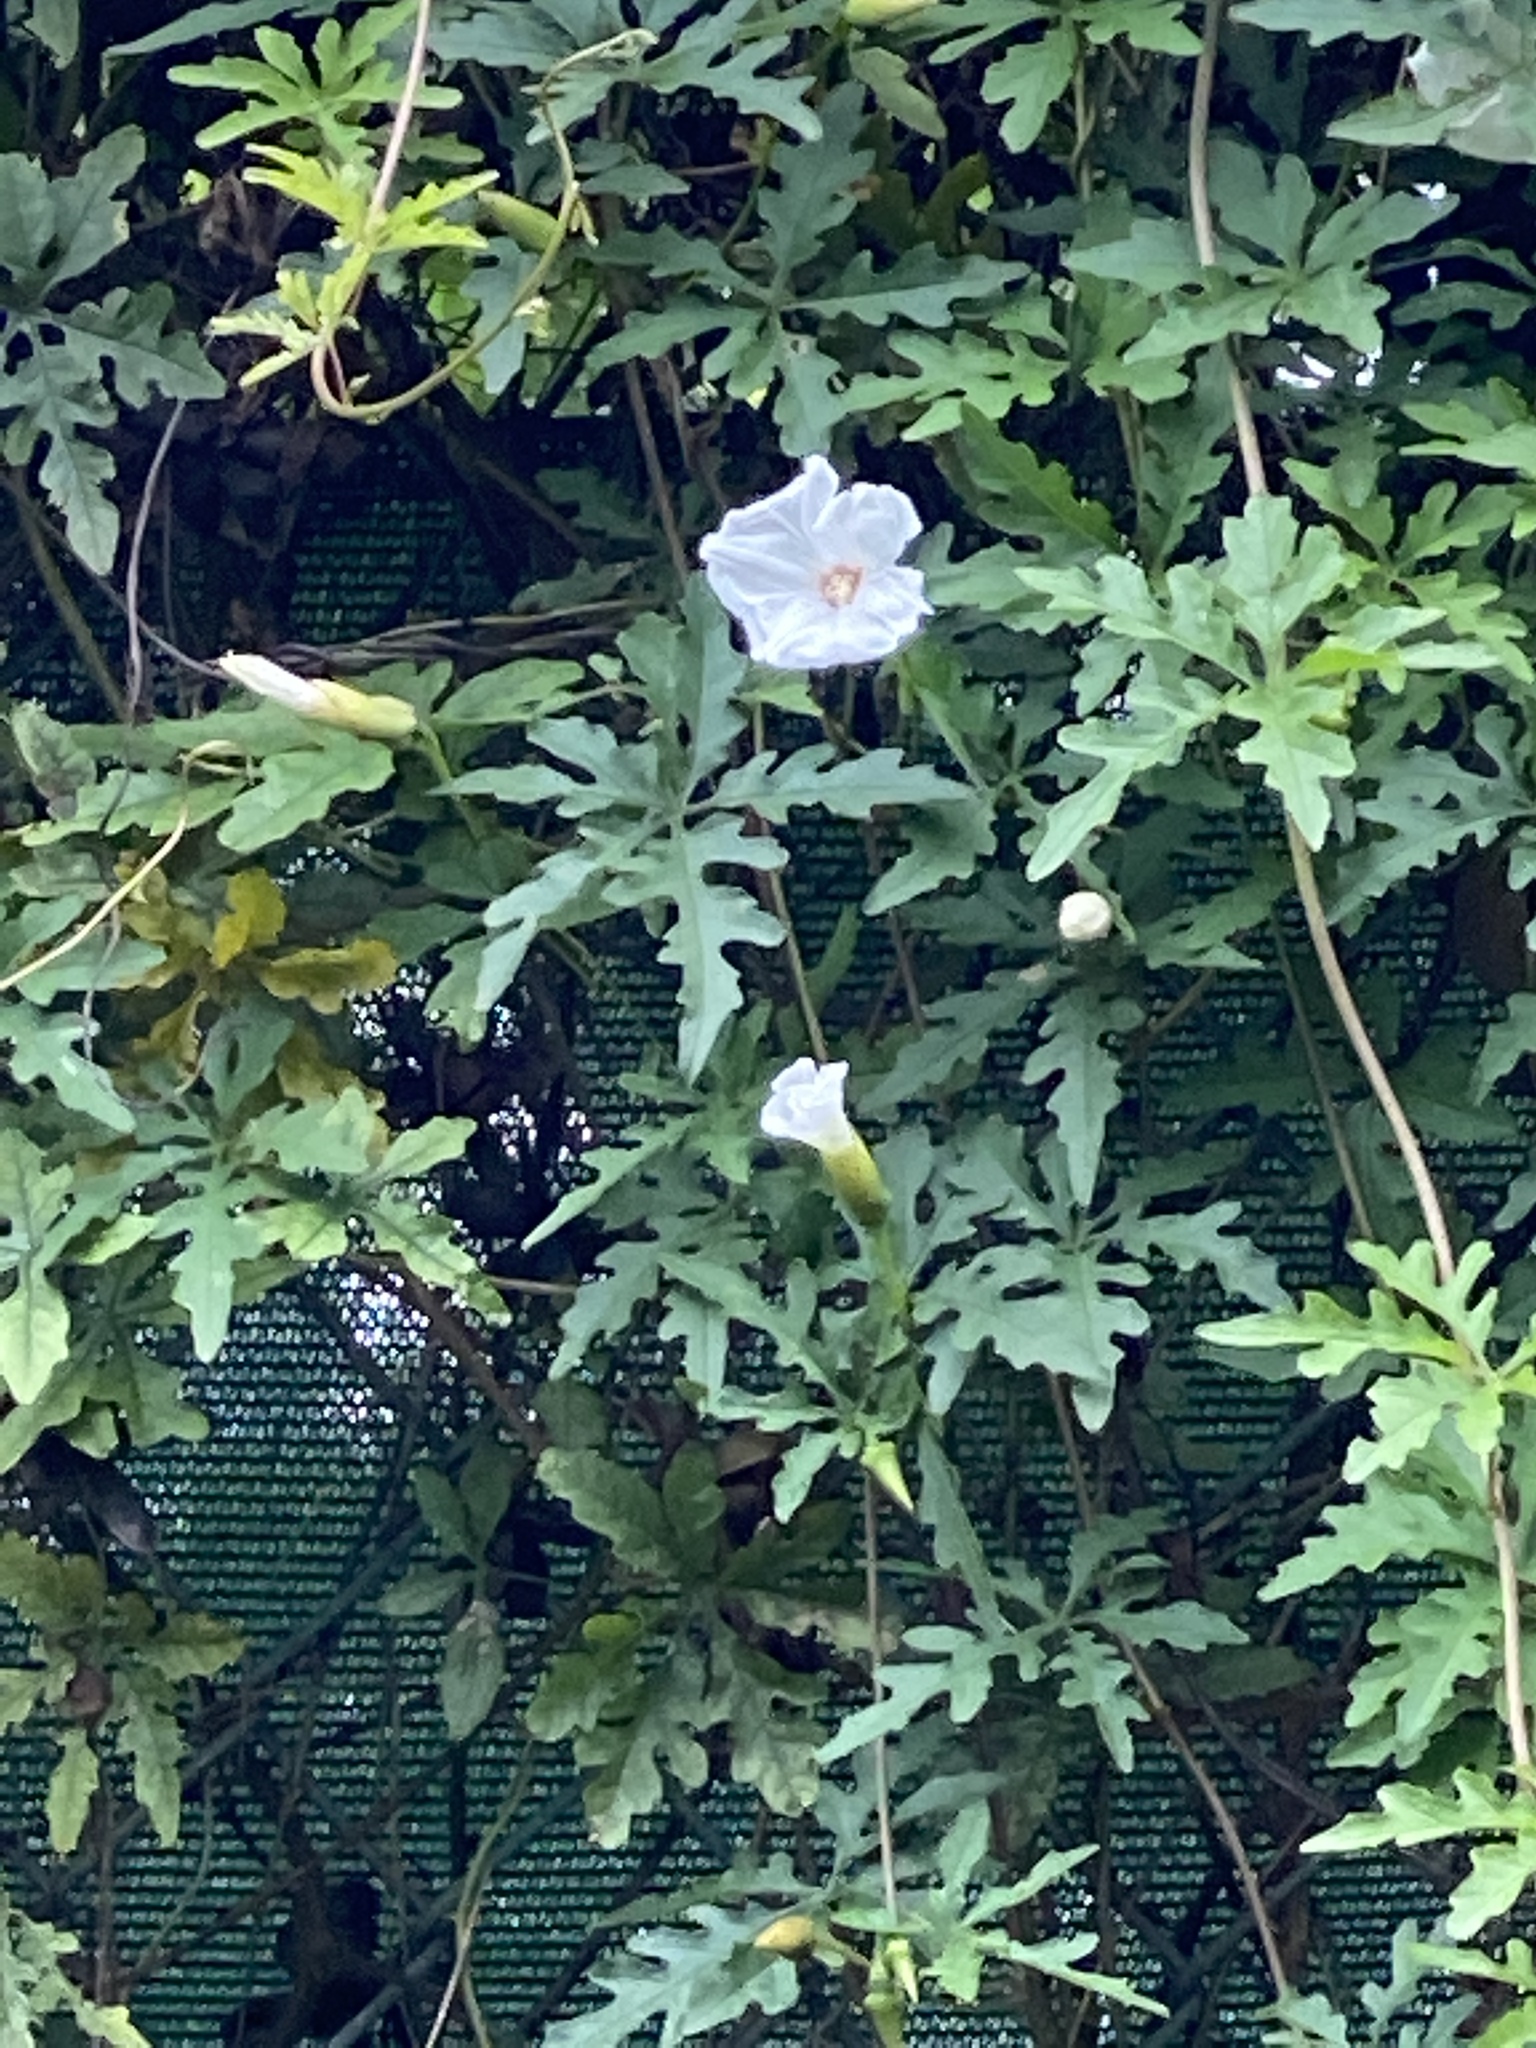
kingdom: Plantae
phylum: Tracheophyta
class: Magnoliopsida
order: Solanales
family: Convolvulaceae
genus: Distimake
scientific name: Distimake dissectus
